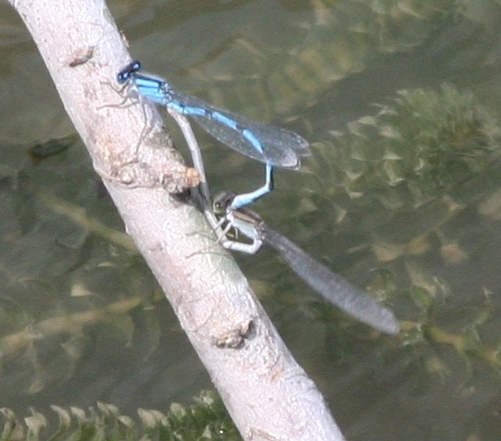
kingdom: Animalia
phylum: Arthropoda
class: Insecta
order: Odonata
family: Coenagrionidae
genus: Enallagma
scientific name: Enallagma civile
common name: Damselfly
